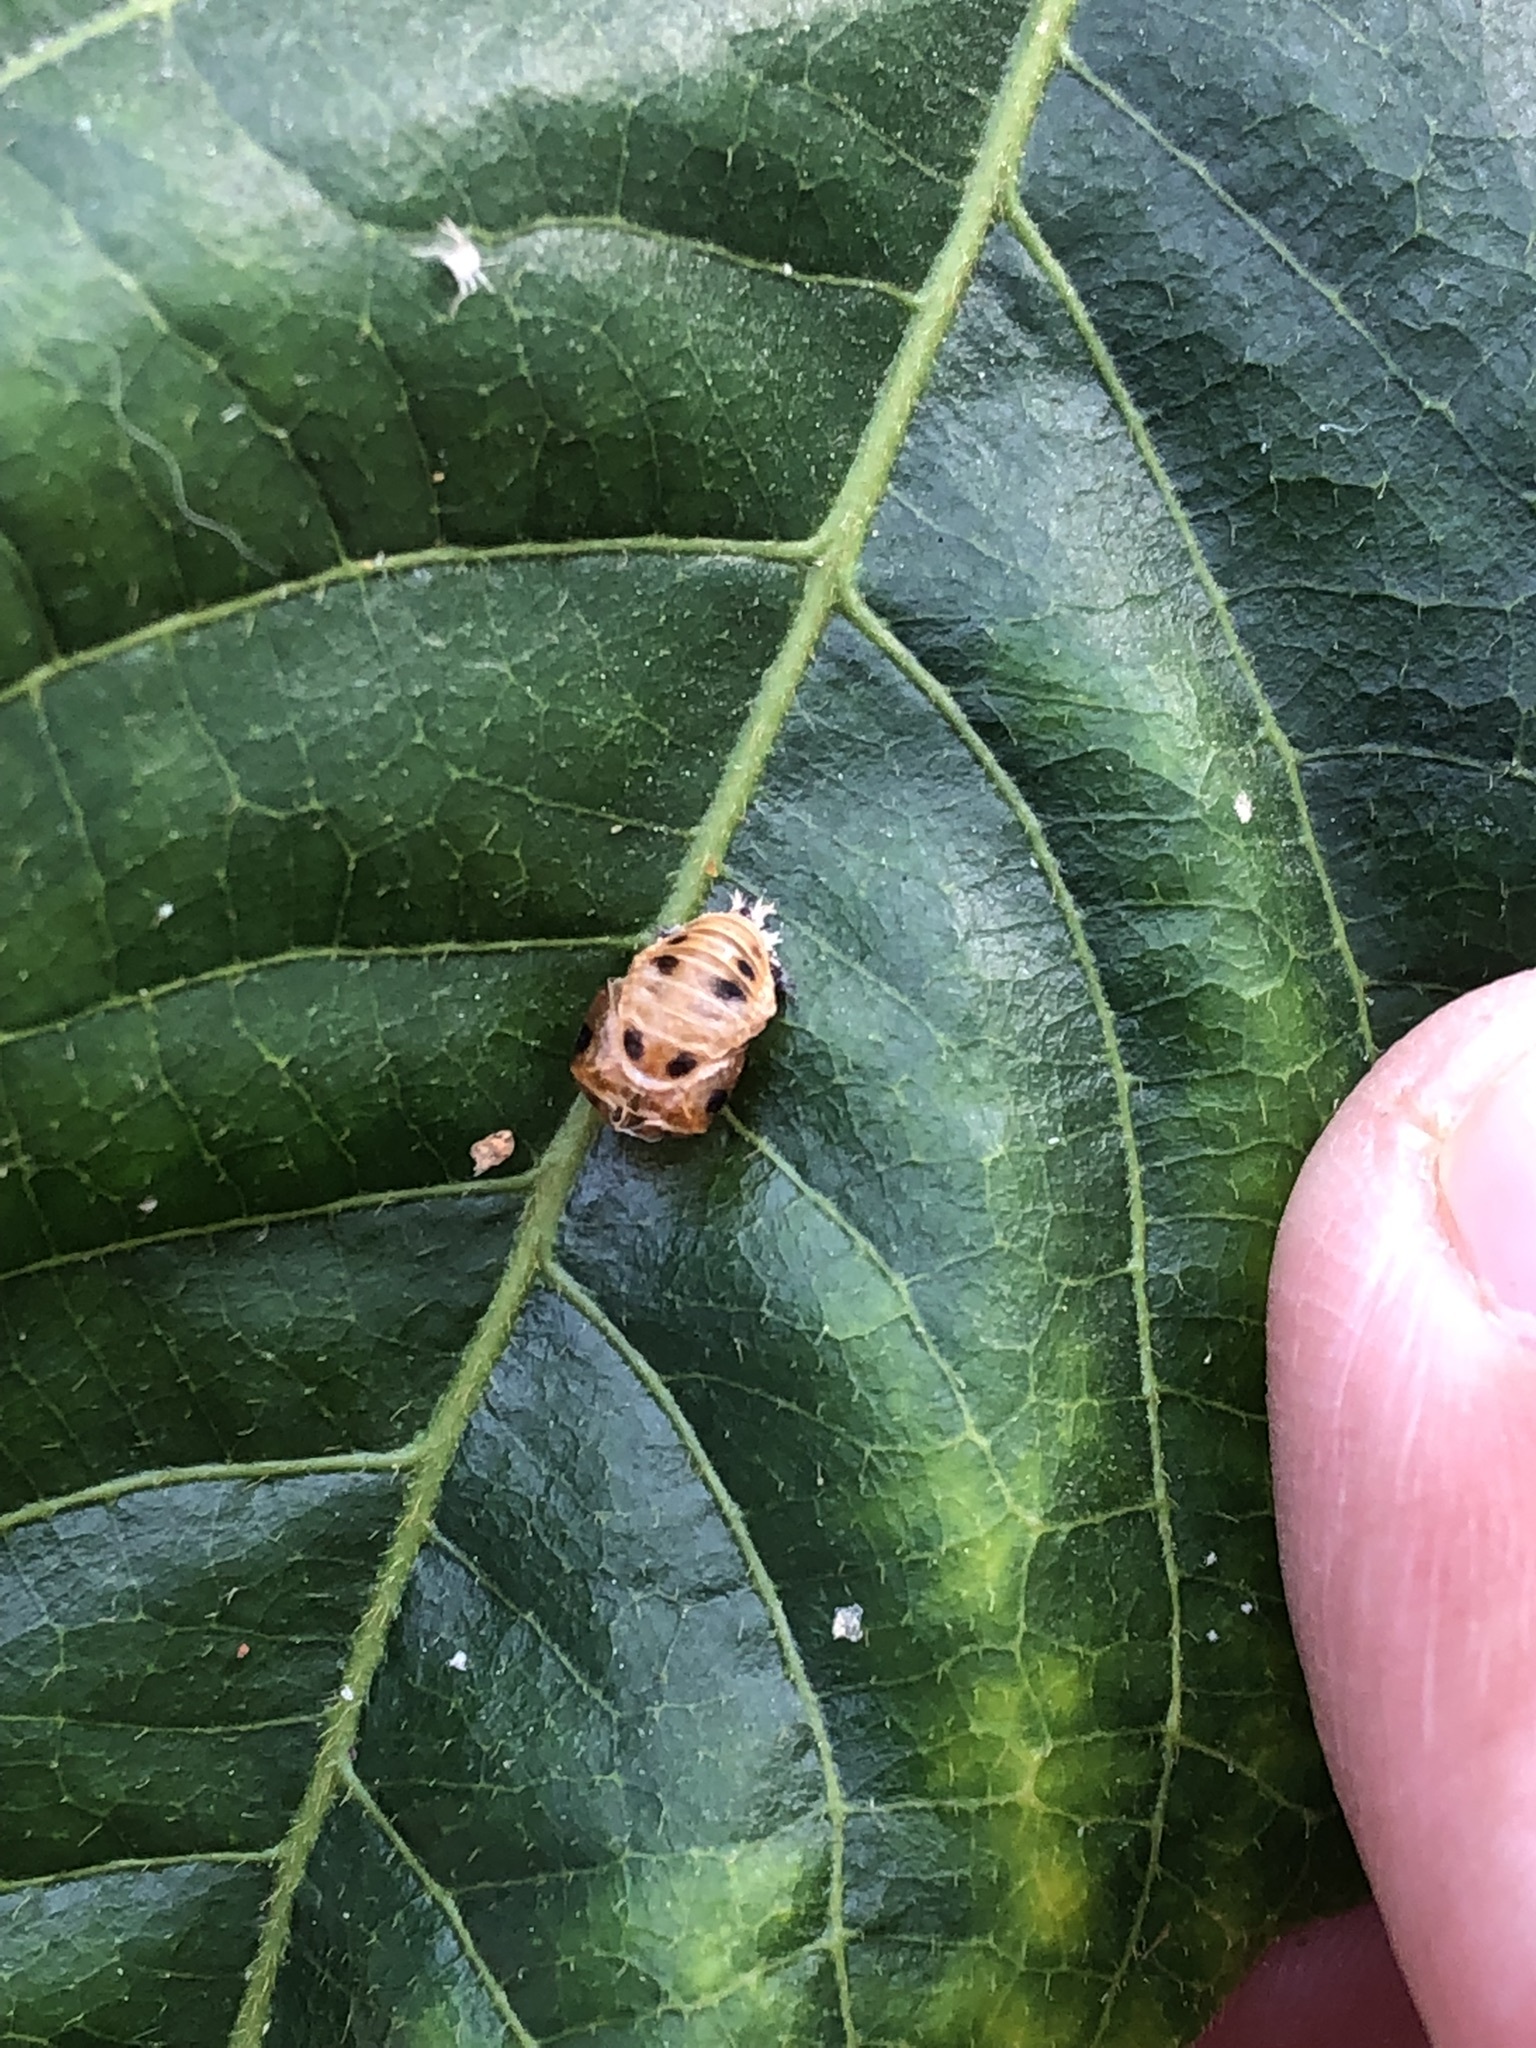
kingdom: Animalia
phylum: Arthropoda
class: Insecta
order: Coleoptera
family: Coccinellidae
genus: Harmonia
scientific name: Harmonia axyridis
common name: Harlequin ladybird
